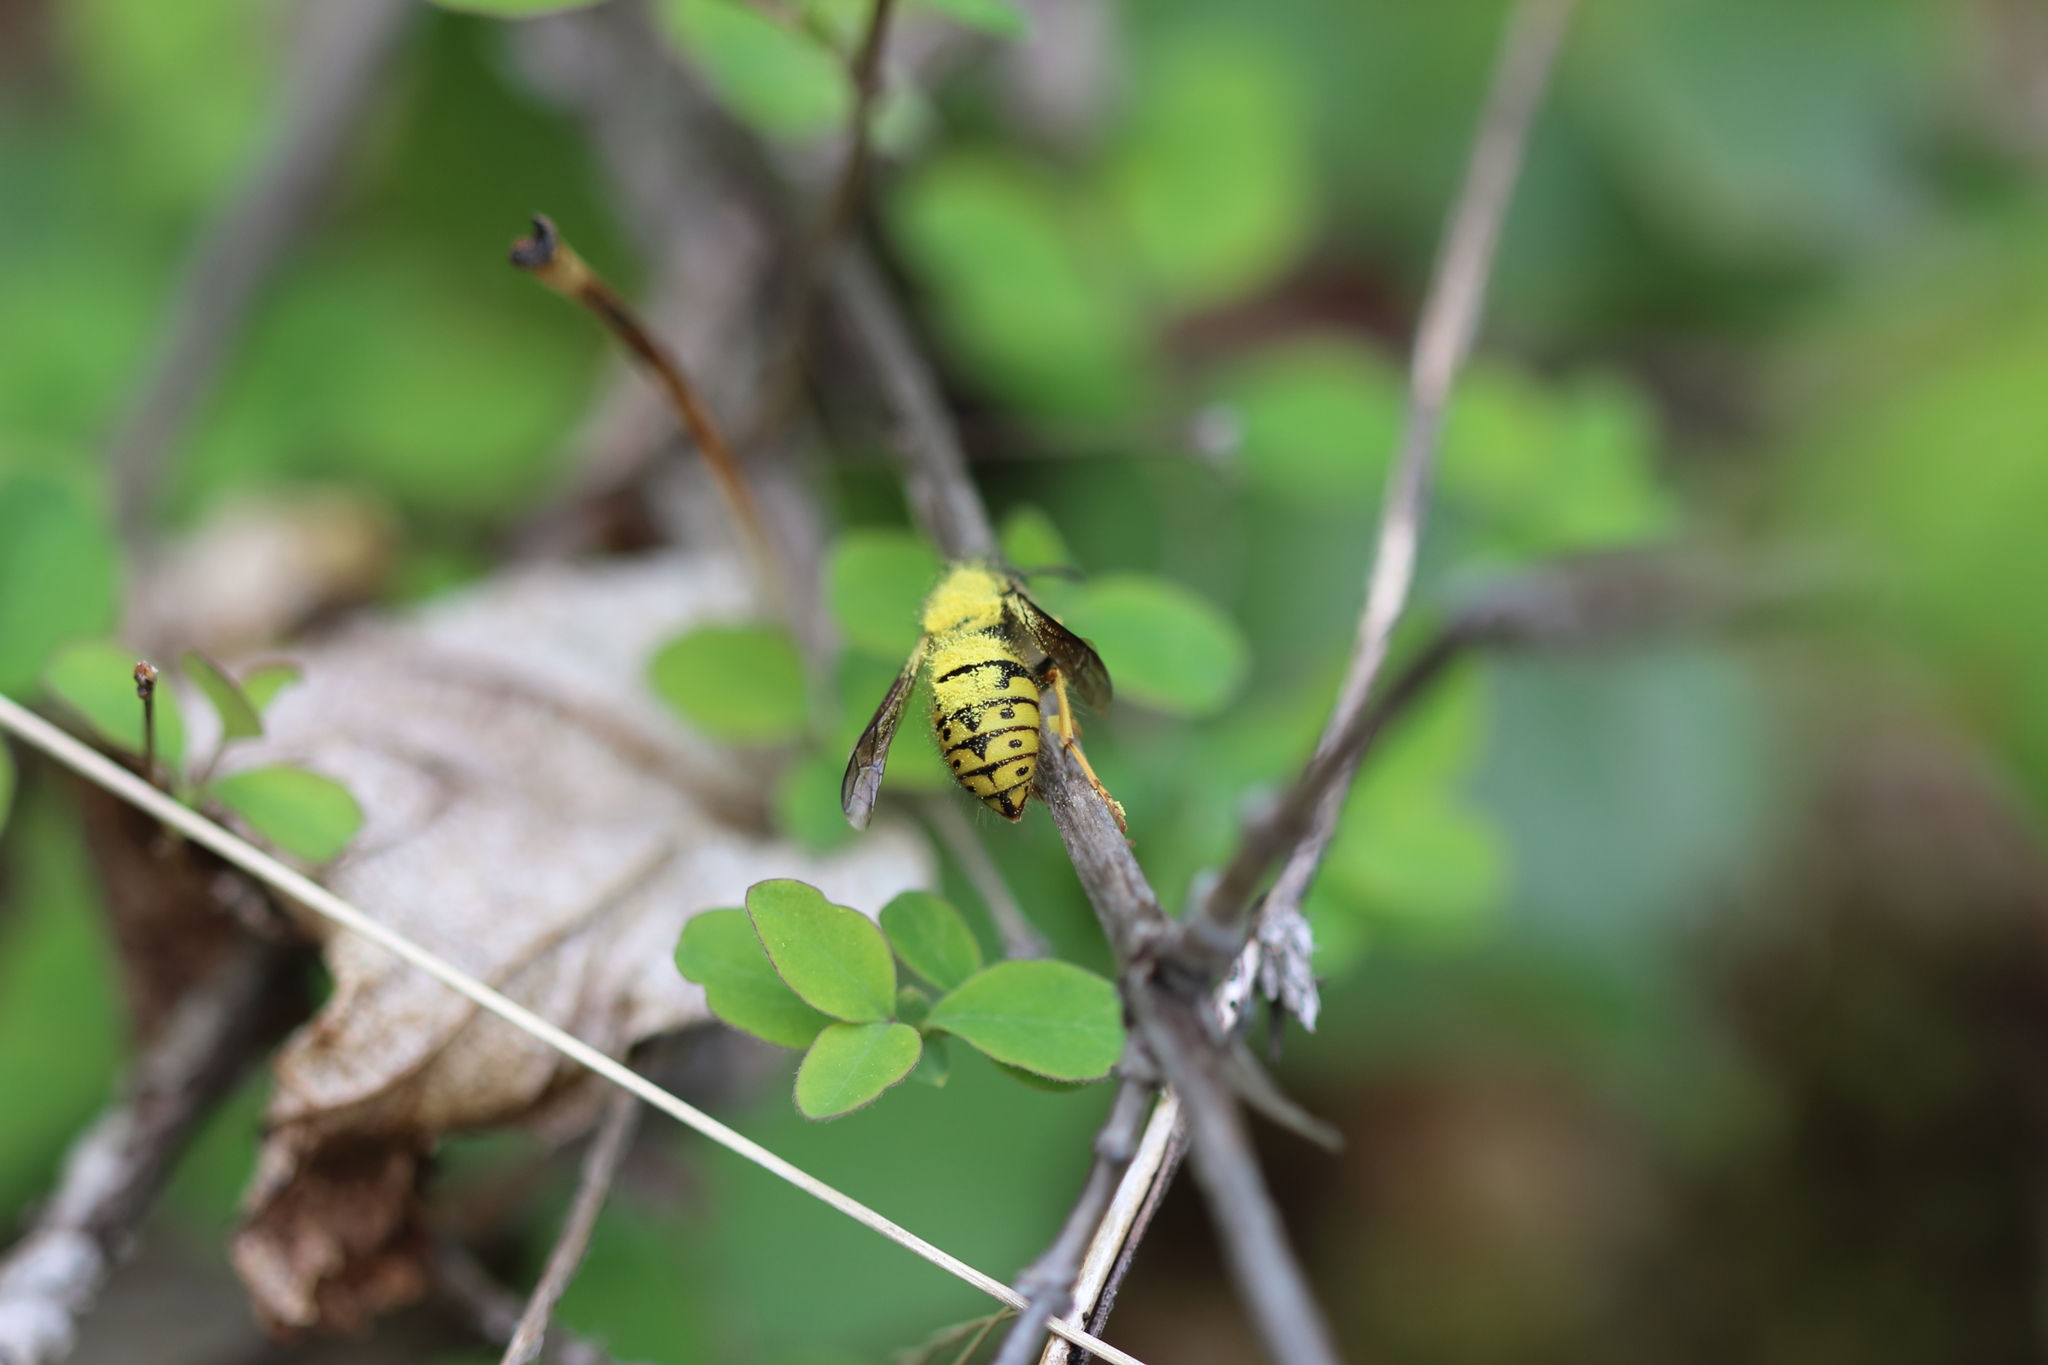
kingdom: Animalia
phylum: Arthropoda
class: Insecta
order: Hymenoptera
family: Vespidae
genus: Dolichovespula
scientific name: Dolichovespula
